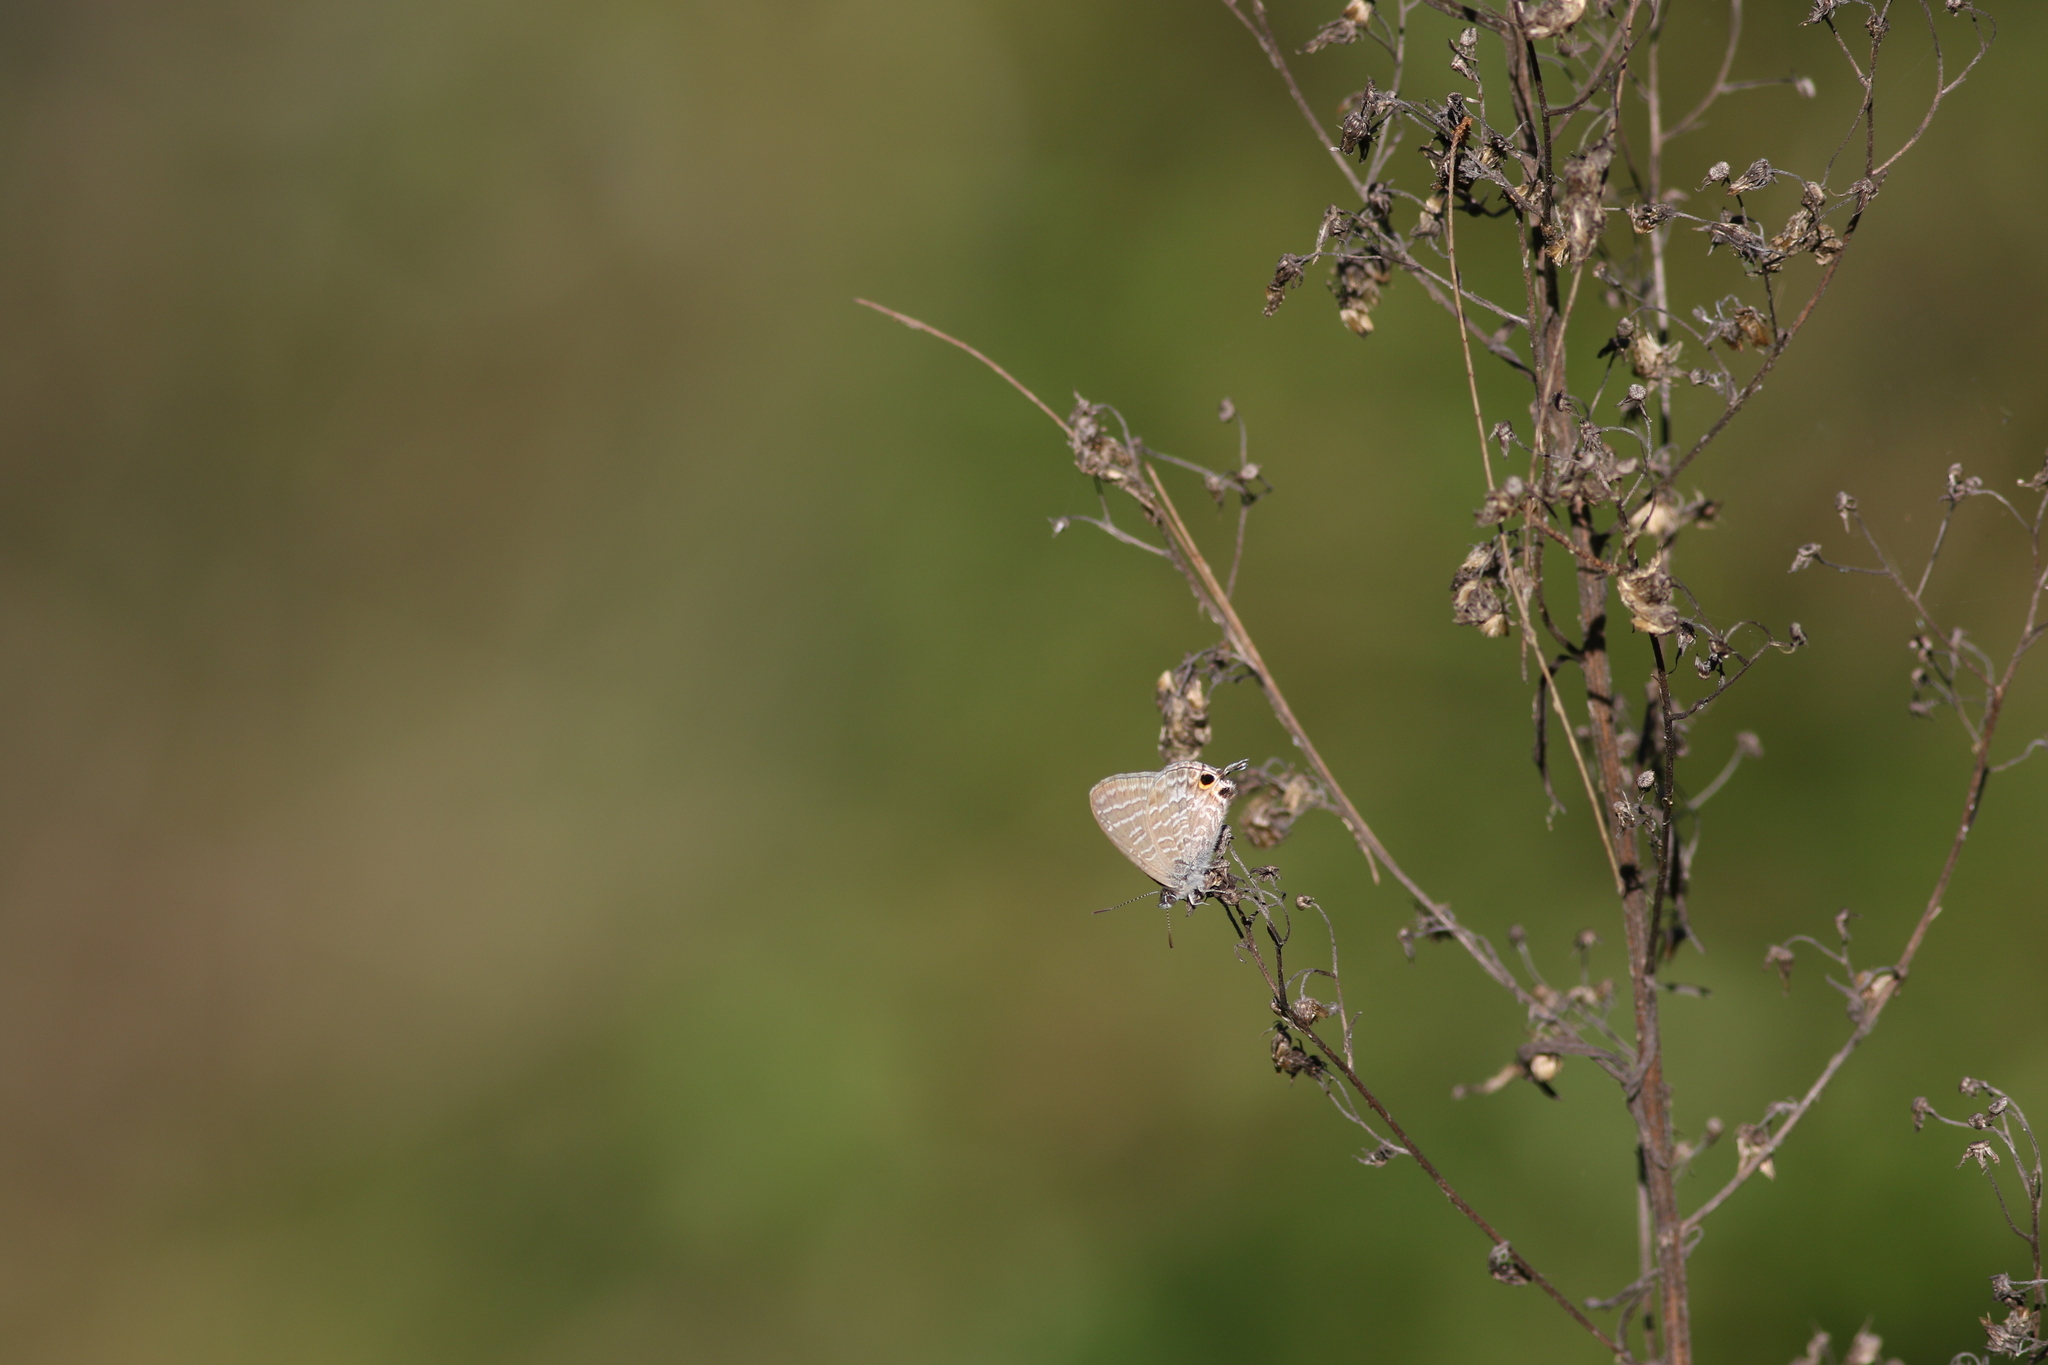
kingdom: Animalia
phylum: Arthropoda
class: Insecta
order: Lepidoptera
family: Lycaenidae
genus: Theclinesthes
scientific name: Theclinesthes onycha
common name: Cycad blue
